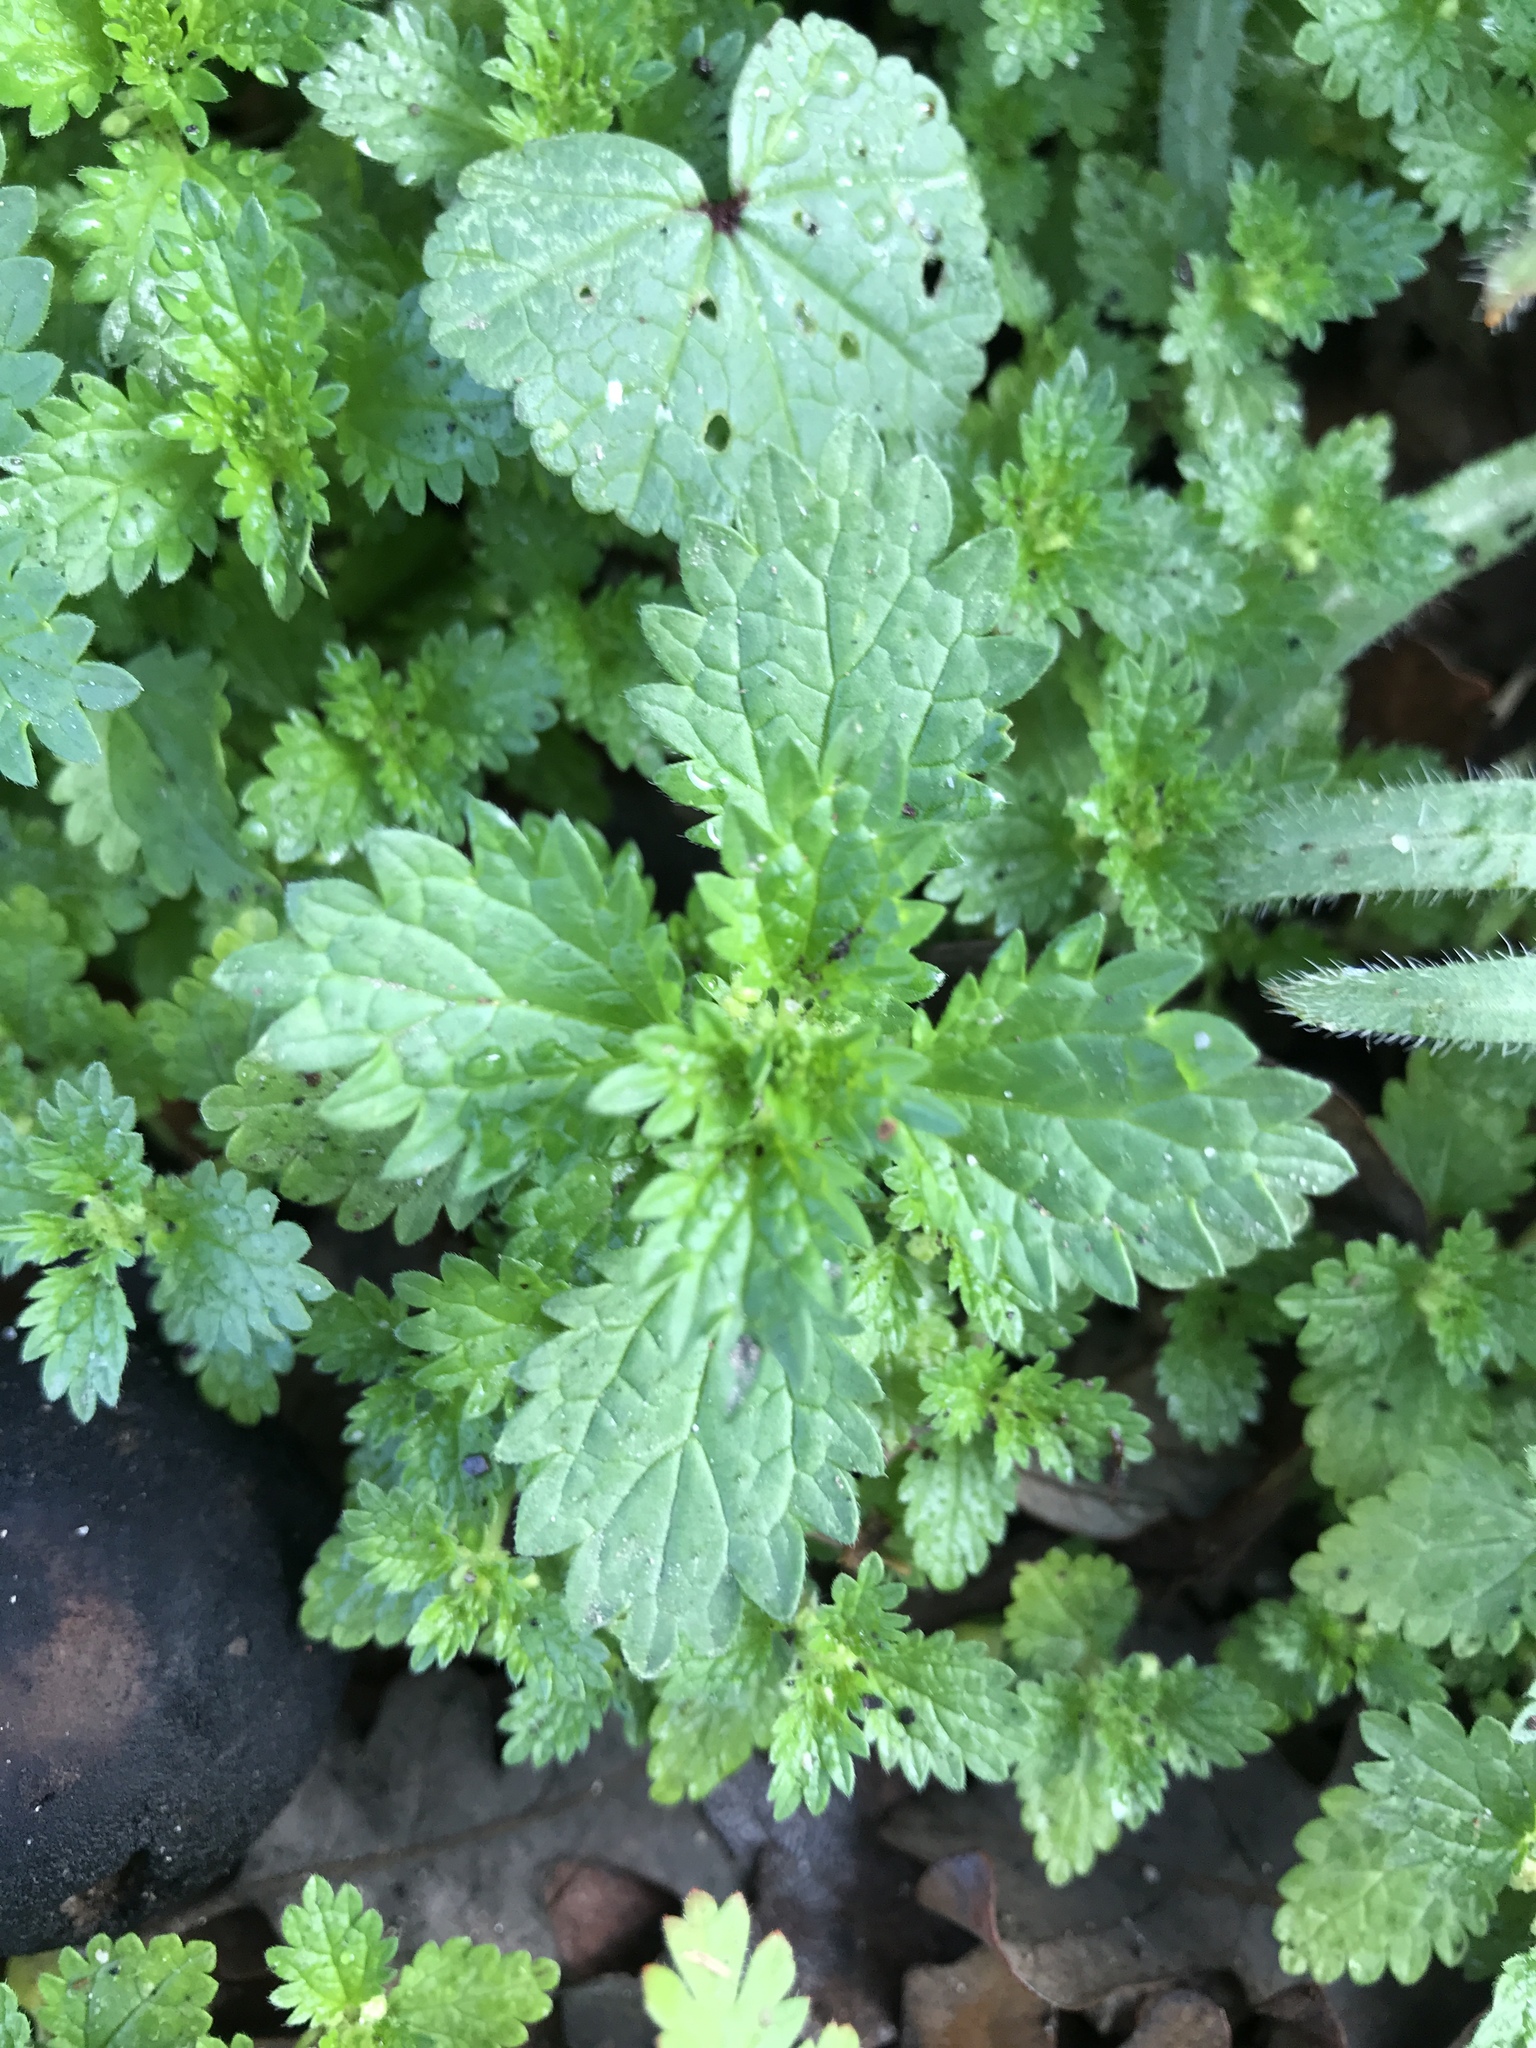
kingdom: Plantae
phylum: Tracheophyta
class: Magnoliopsida
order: Rosales
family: Urticaceae
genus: Urtica
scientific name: Urtica urens
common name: Dwarf nettle
